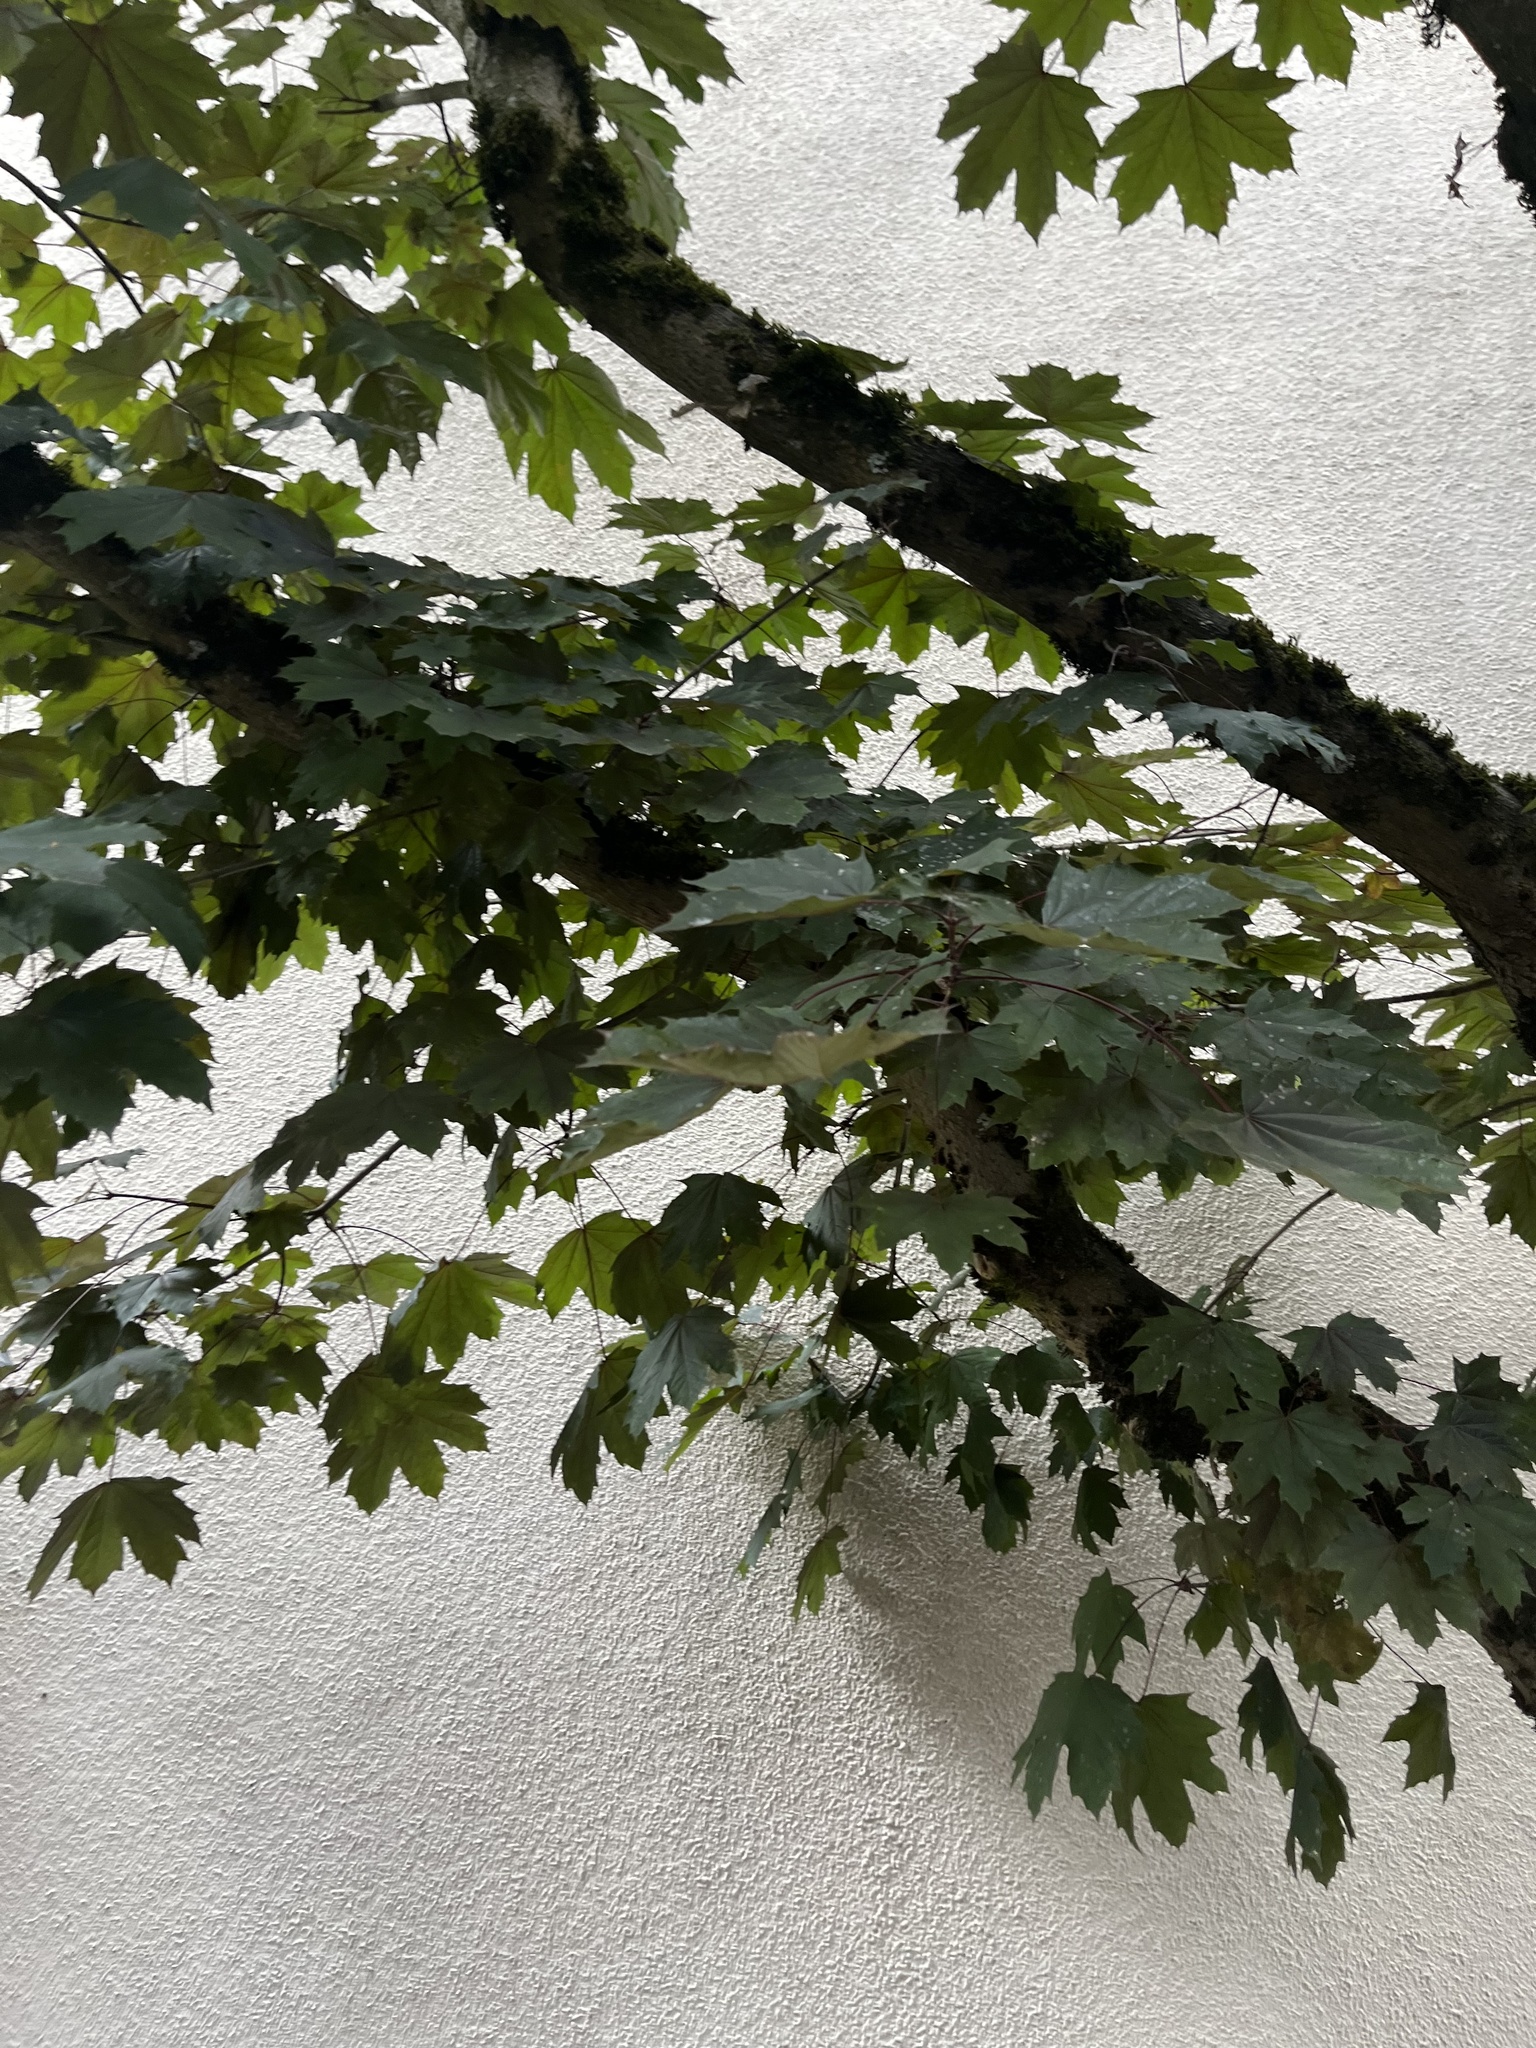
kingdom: Plantae
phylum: Tracheophyta
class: Magnoliopsida
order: Sapindales
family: Sapindaceae
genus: Acer
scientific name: Acer platanoides
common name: Norway maple
